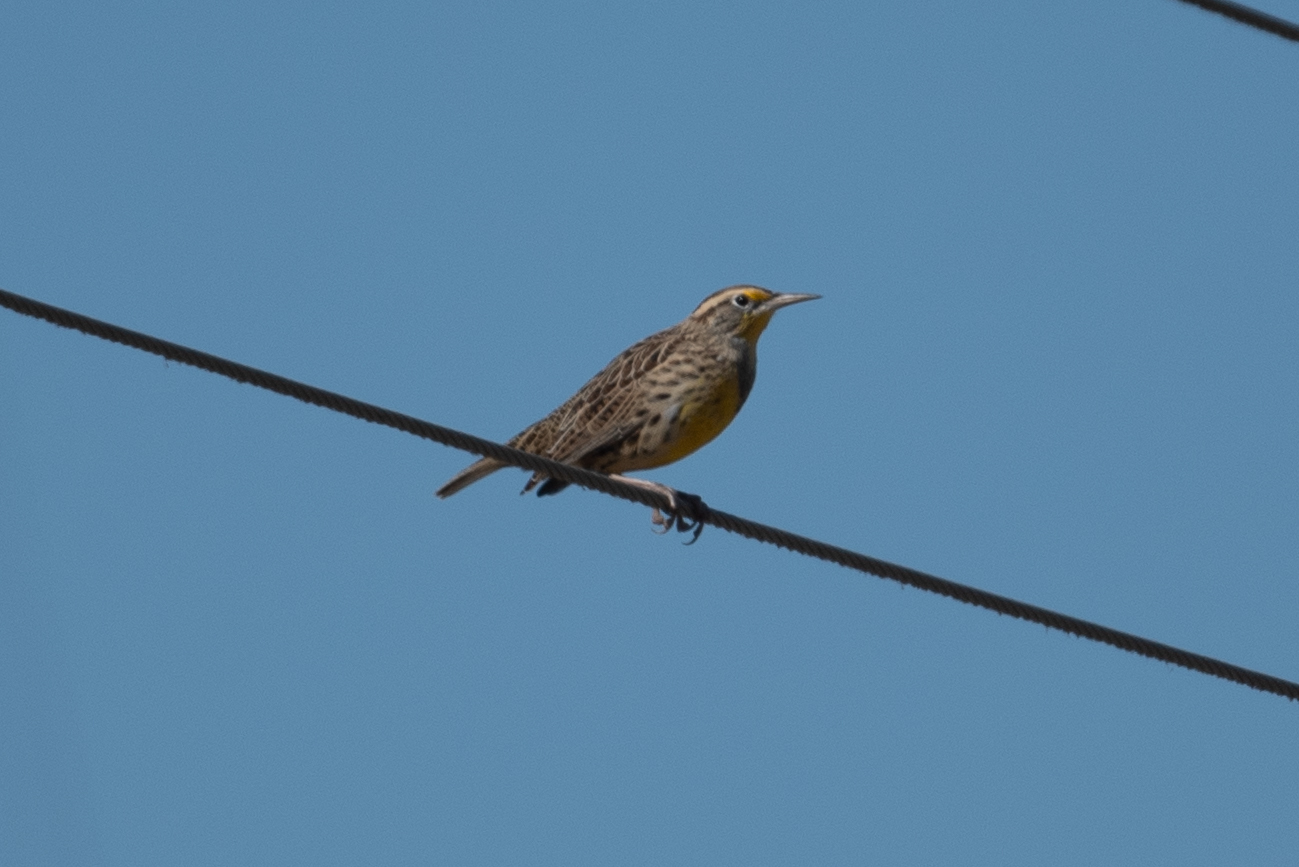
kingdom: Animalia
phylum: Chordata
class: Aves
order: Passeriformes
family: Icteridae
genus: Sturnella
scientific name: Sturnella neglecta
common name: Western meadowlark
